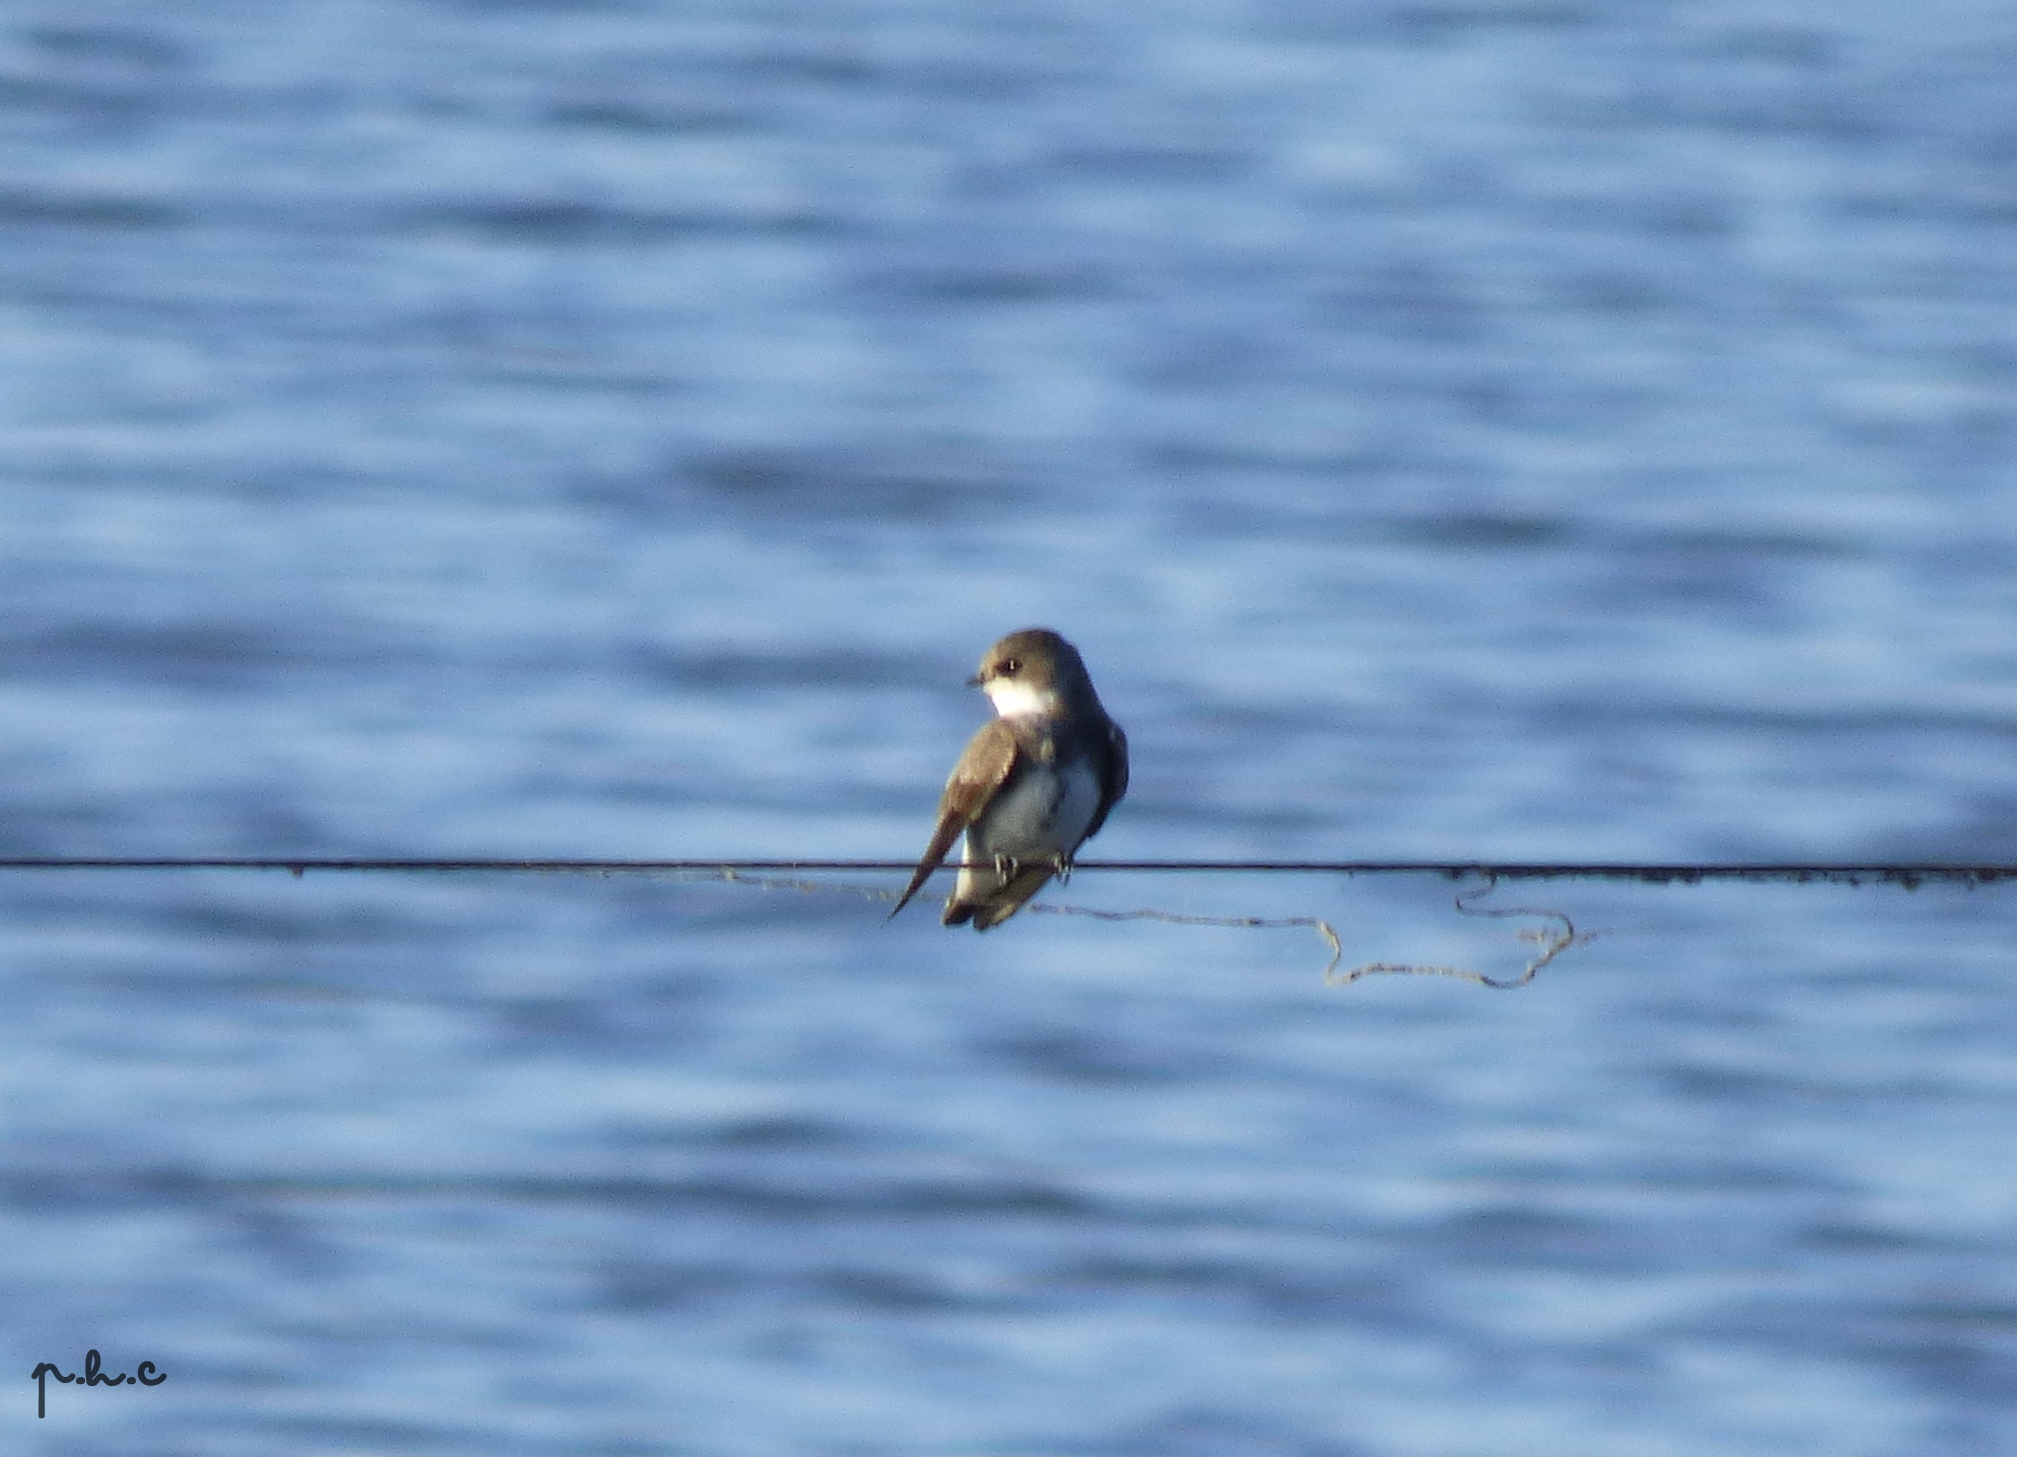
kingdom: Animalia
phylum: Chordata
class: Aves
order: Passeriformes
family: Hirundinidae
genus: Riparia
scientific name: Riparia riparia
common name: Sand martin
